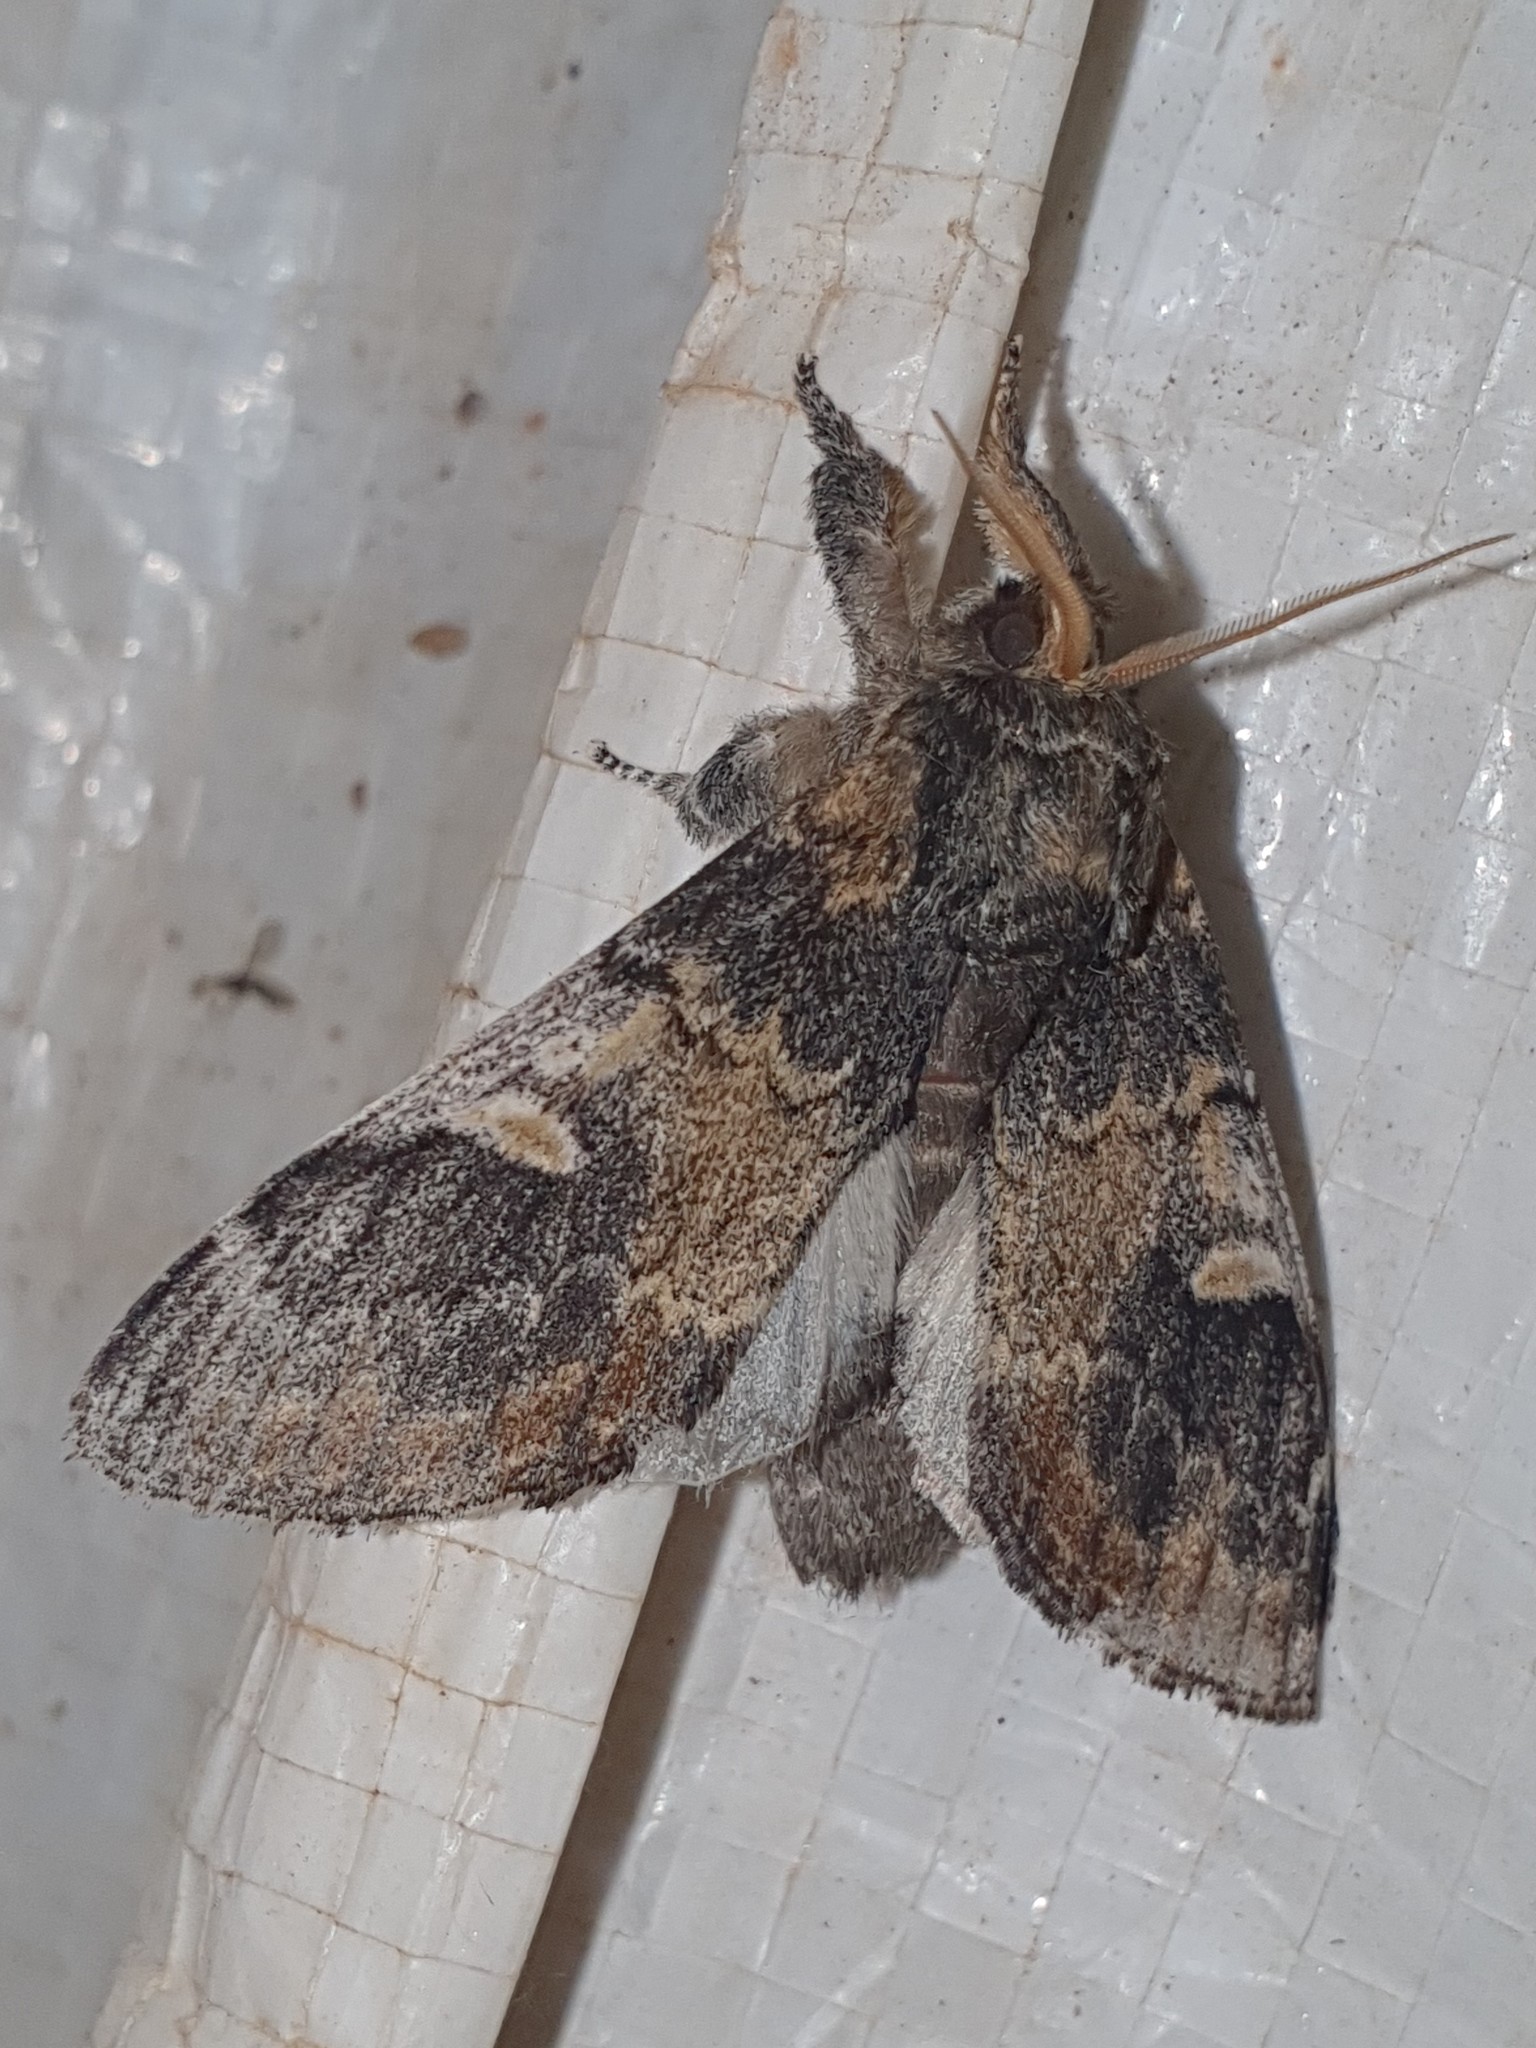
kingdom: Animalia
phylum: Arthropoda
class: Insecta
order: Lepidoptera
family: Notodontidae
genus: Notodonta
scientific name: Notodonta tritophus
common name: Three-humped prominent
